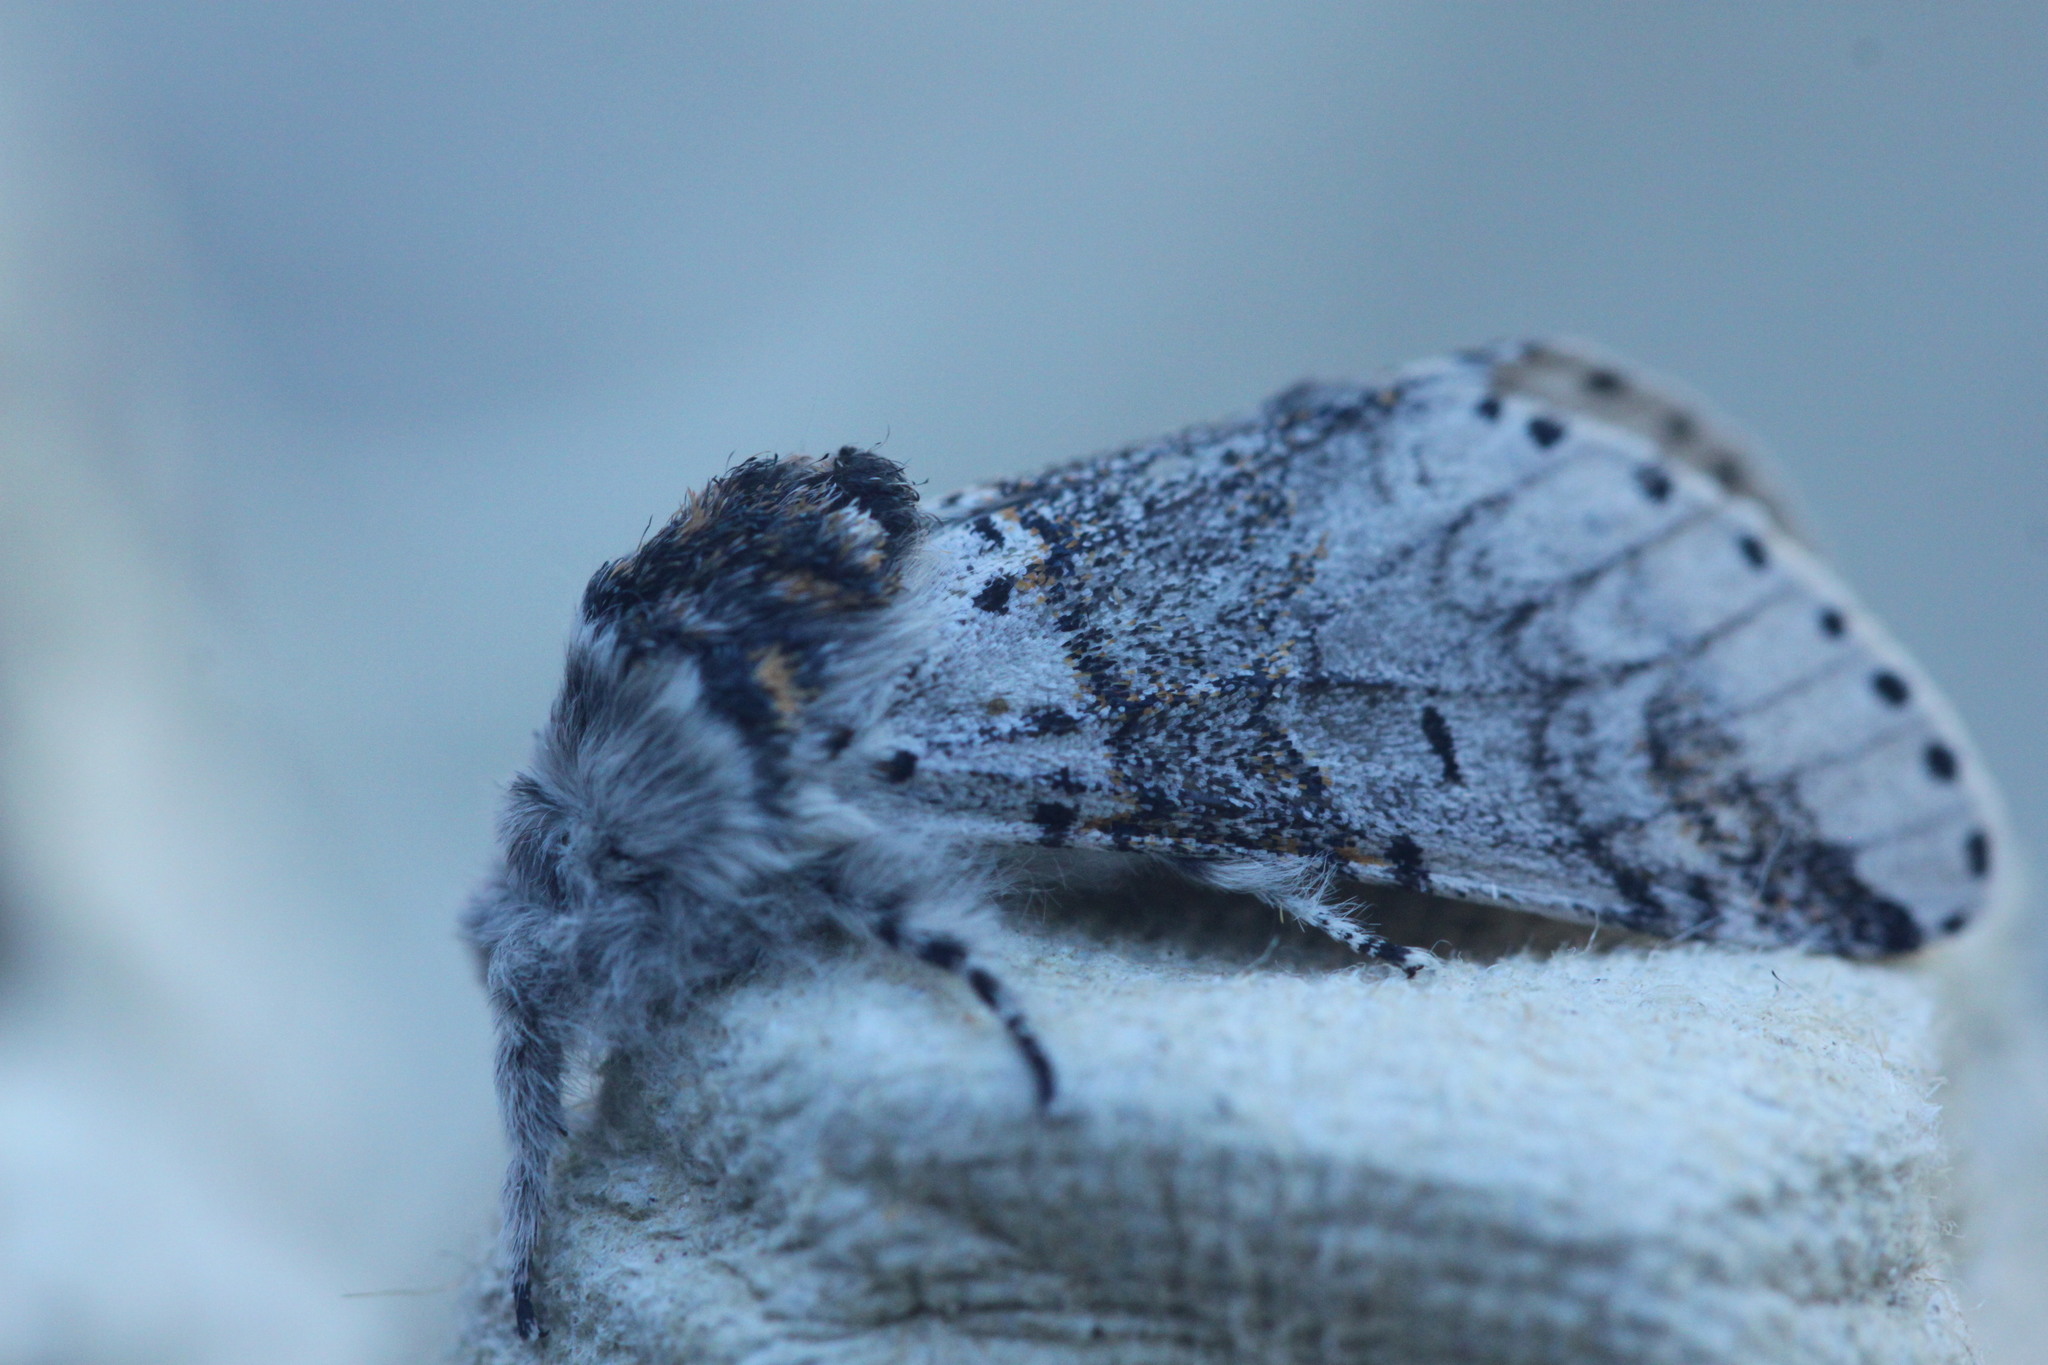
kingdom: Animalia
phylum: Arthropoda
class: Insecta
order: Lepidoptera
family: Notodontidae
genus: Furcula
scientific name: Furcula furcula
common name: Sallow kitten
